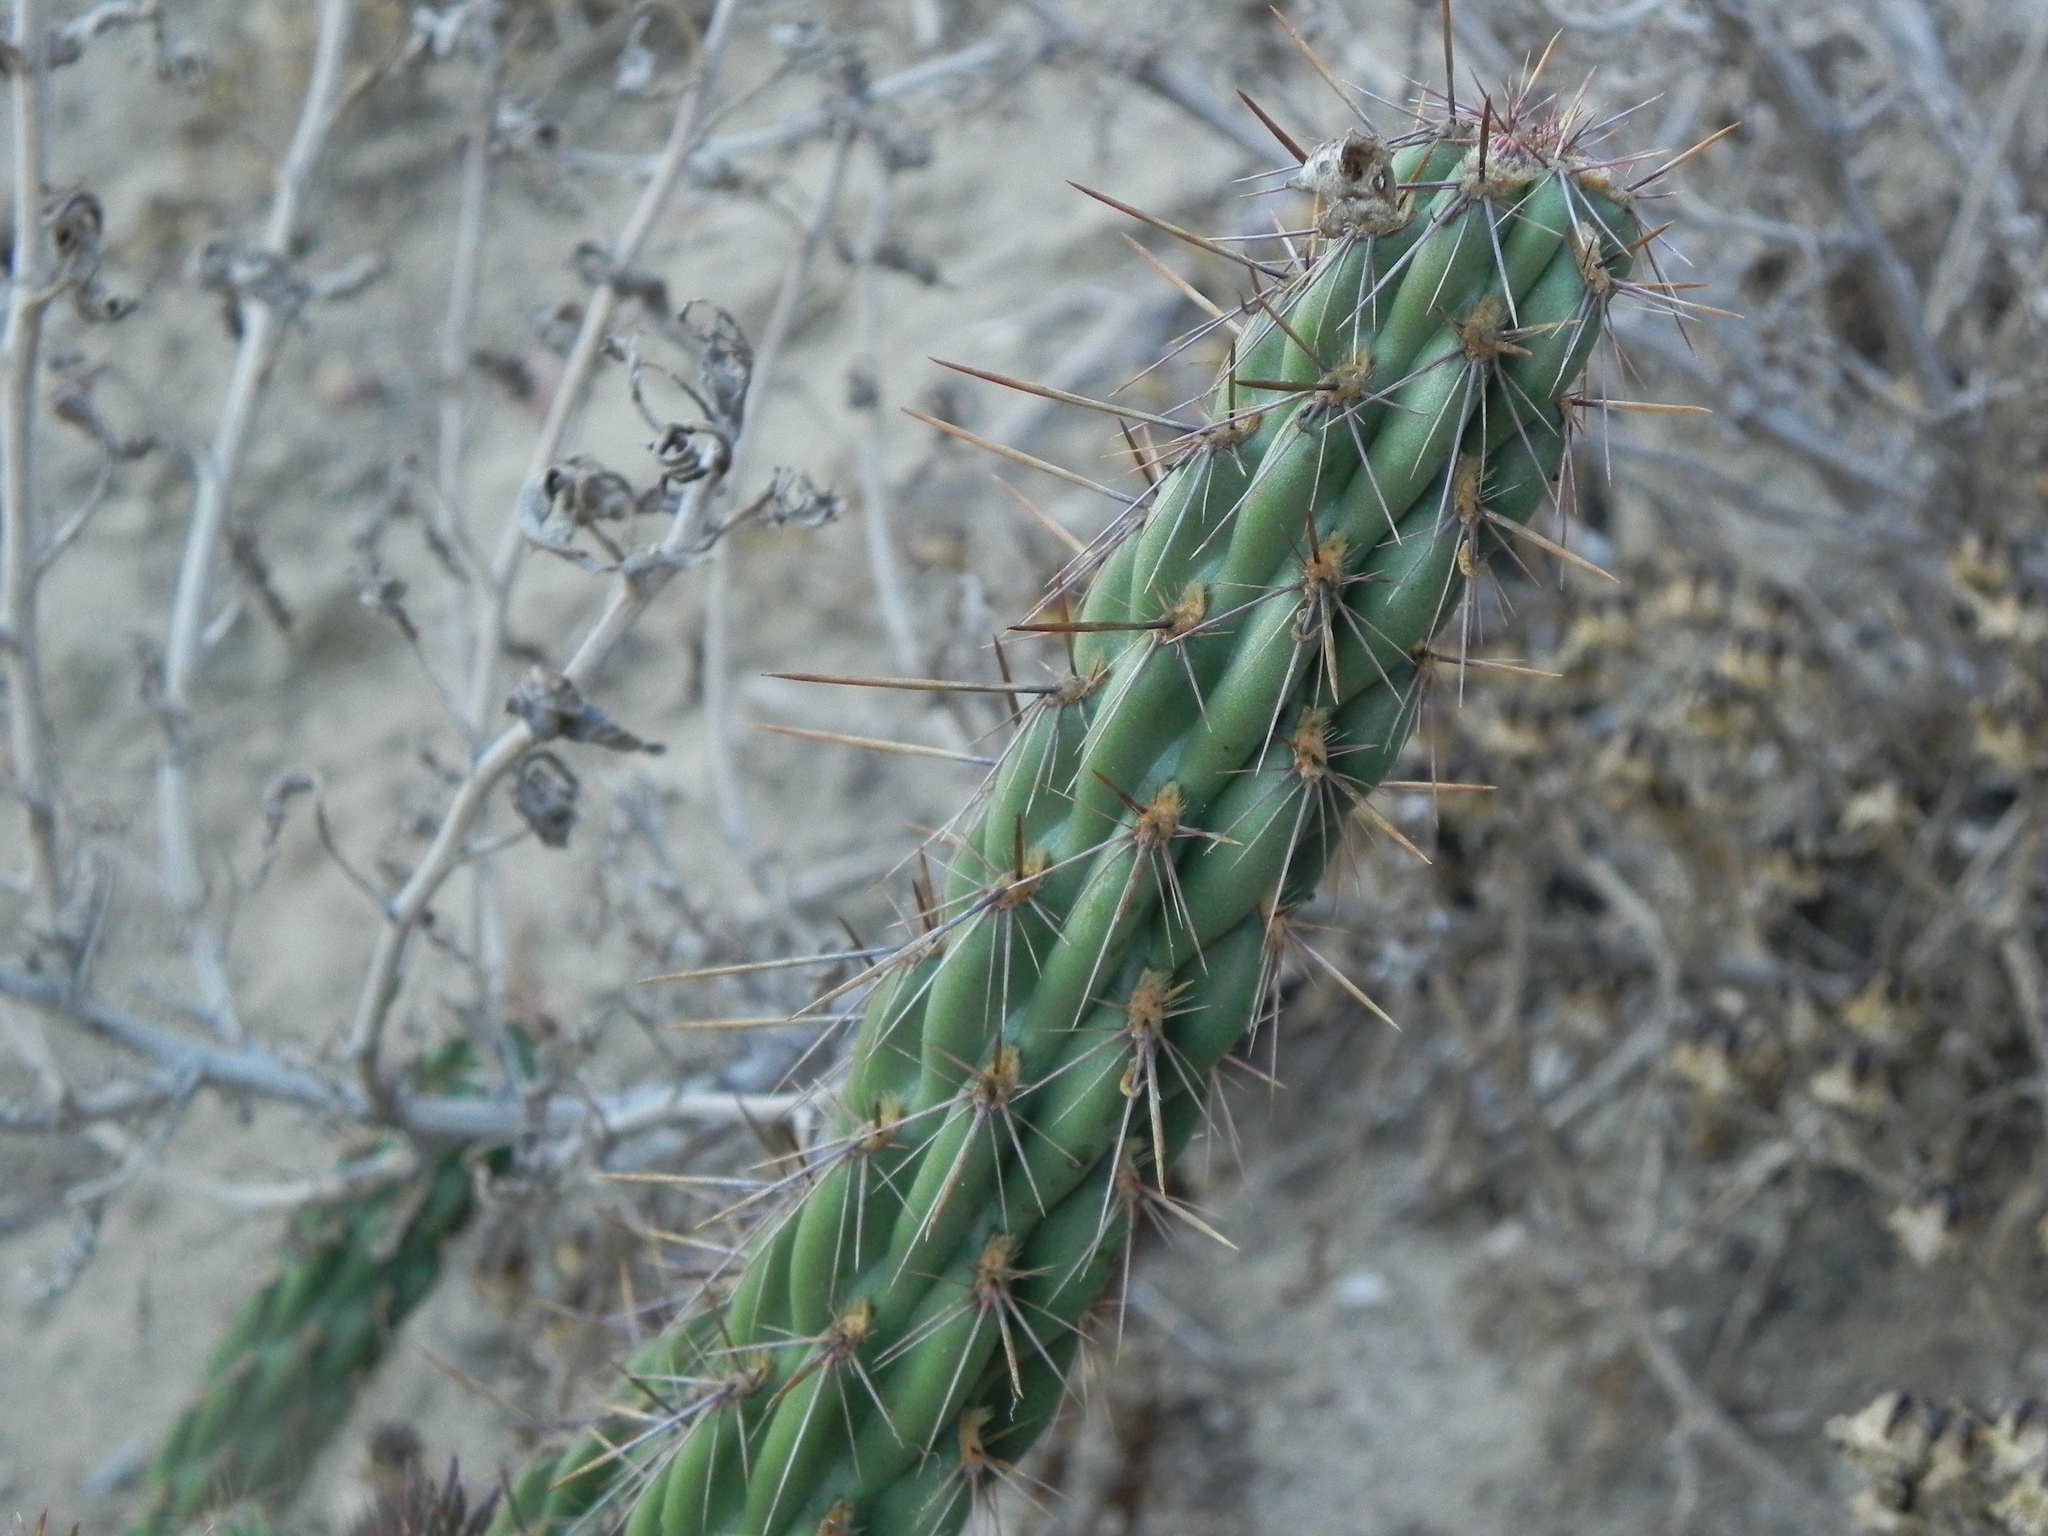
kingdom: Plantae
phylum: Tracheophyta
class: Magnoliopsida
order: Caryophyllales
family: Cactaceae
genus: Cylindropuntia
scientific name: Cylindropuntia californica
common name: Snake cholla
